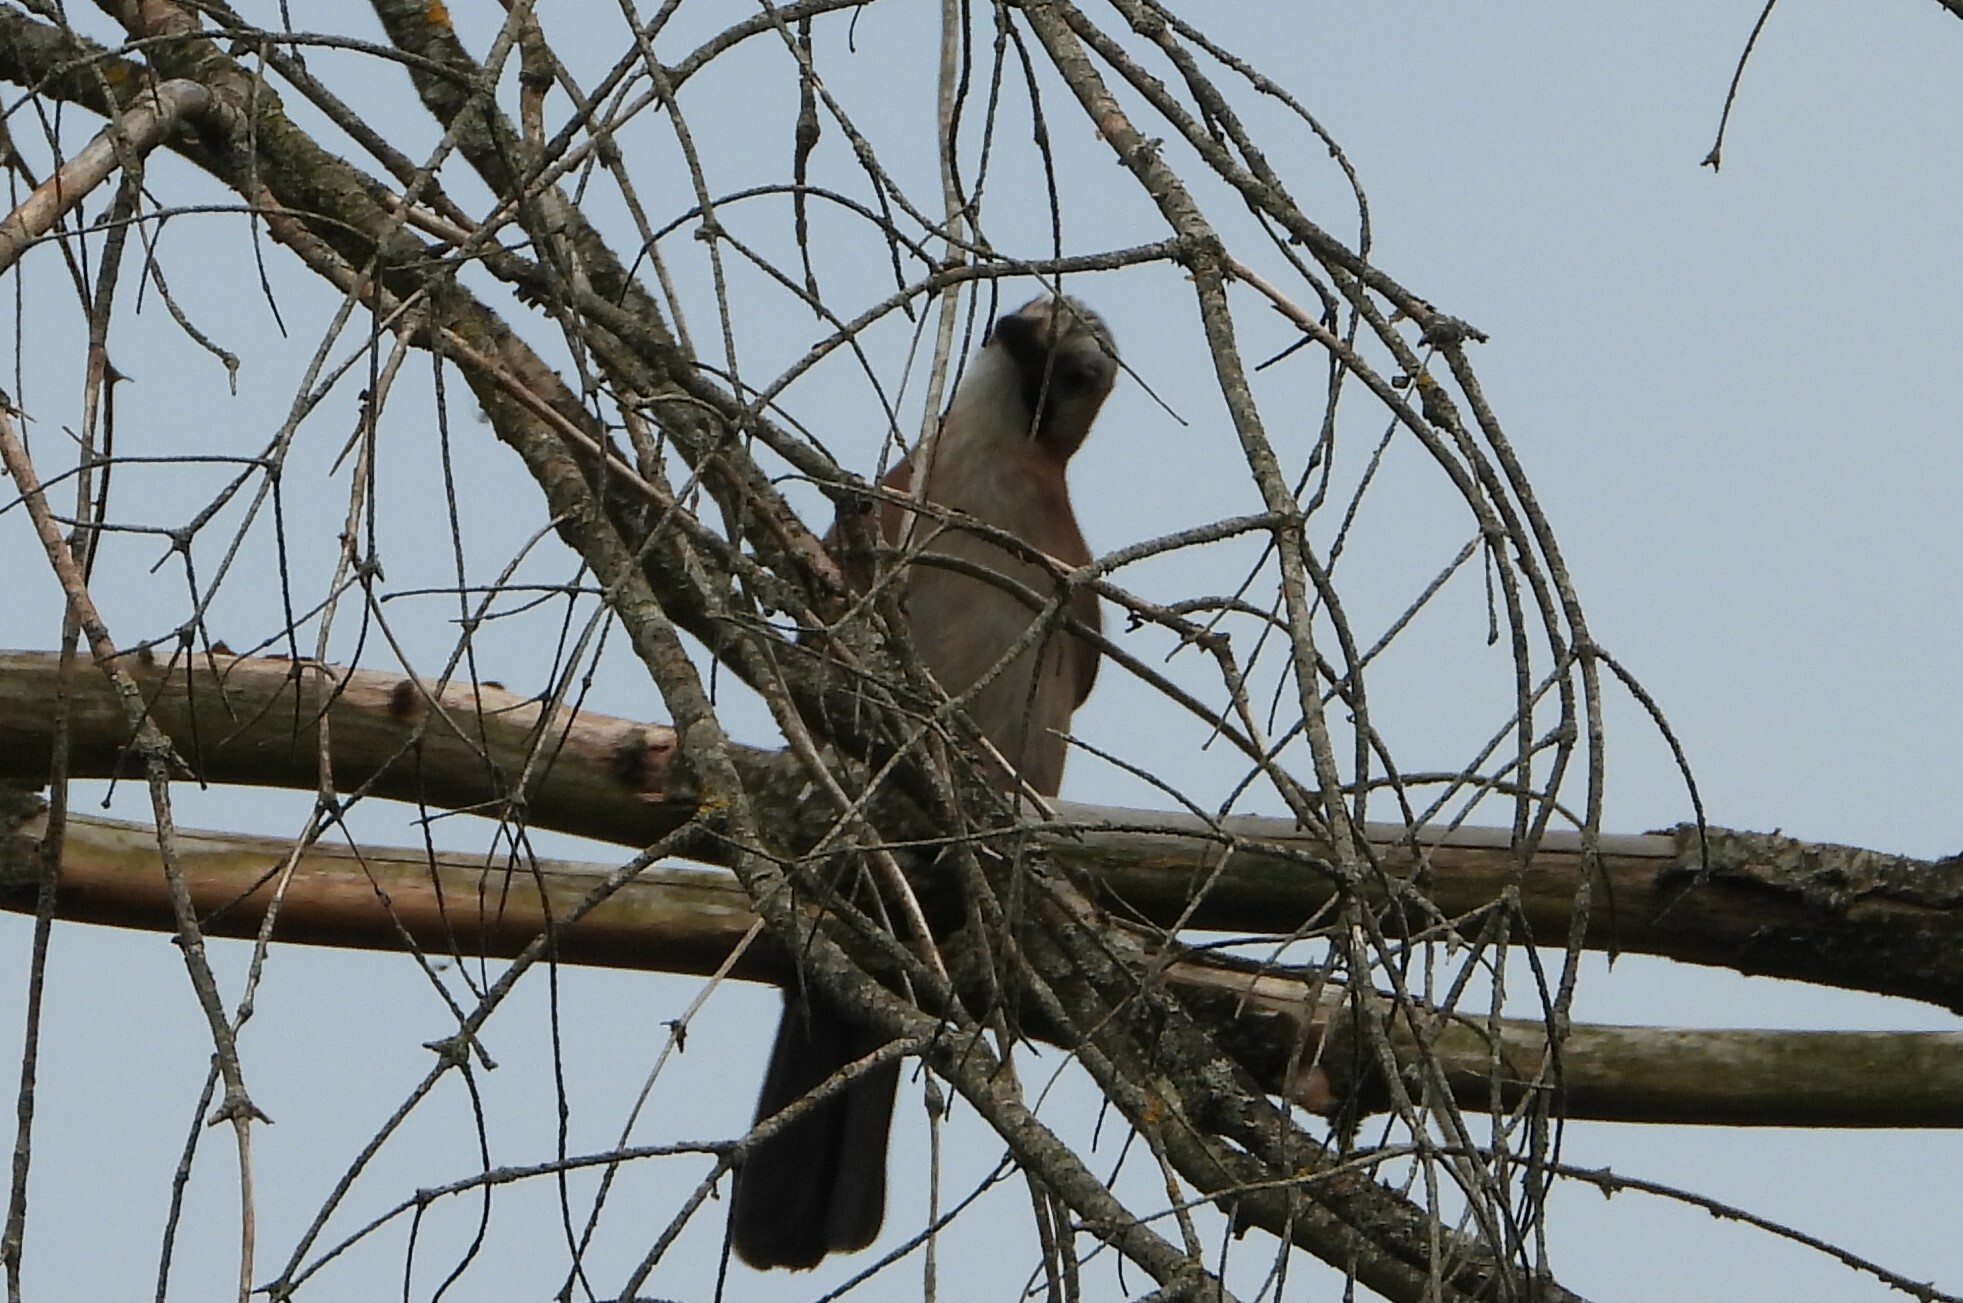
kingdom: Animalia
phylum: Chordata
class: Aves
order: Passeriformes
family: Corvidae
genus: Garrulus
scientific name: Garrulus glandarius
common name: Eurasian jay
